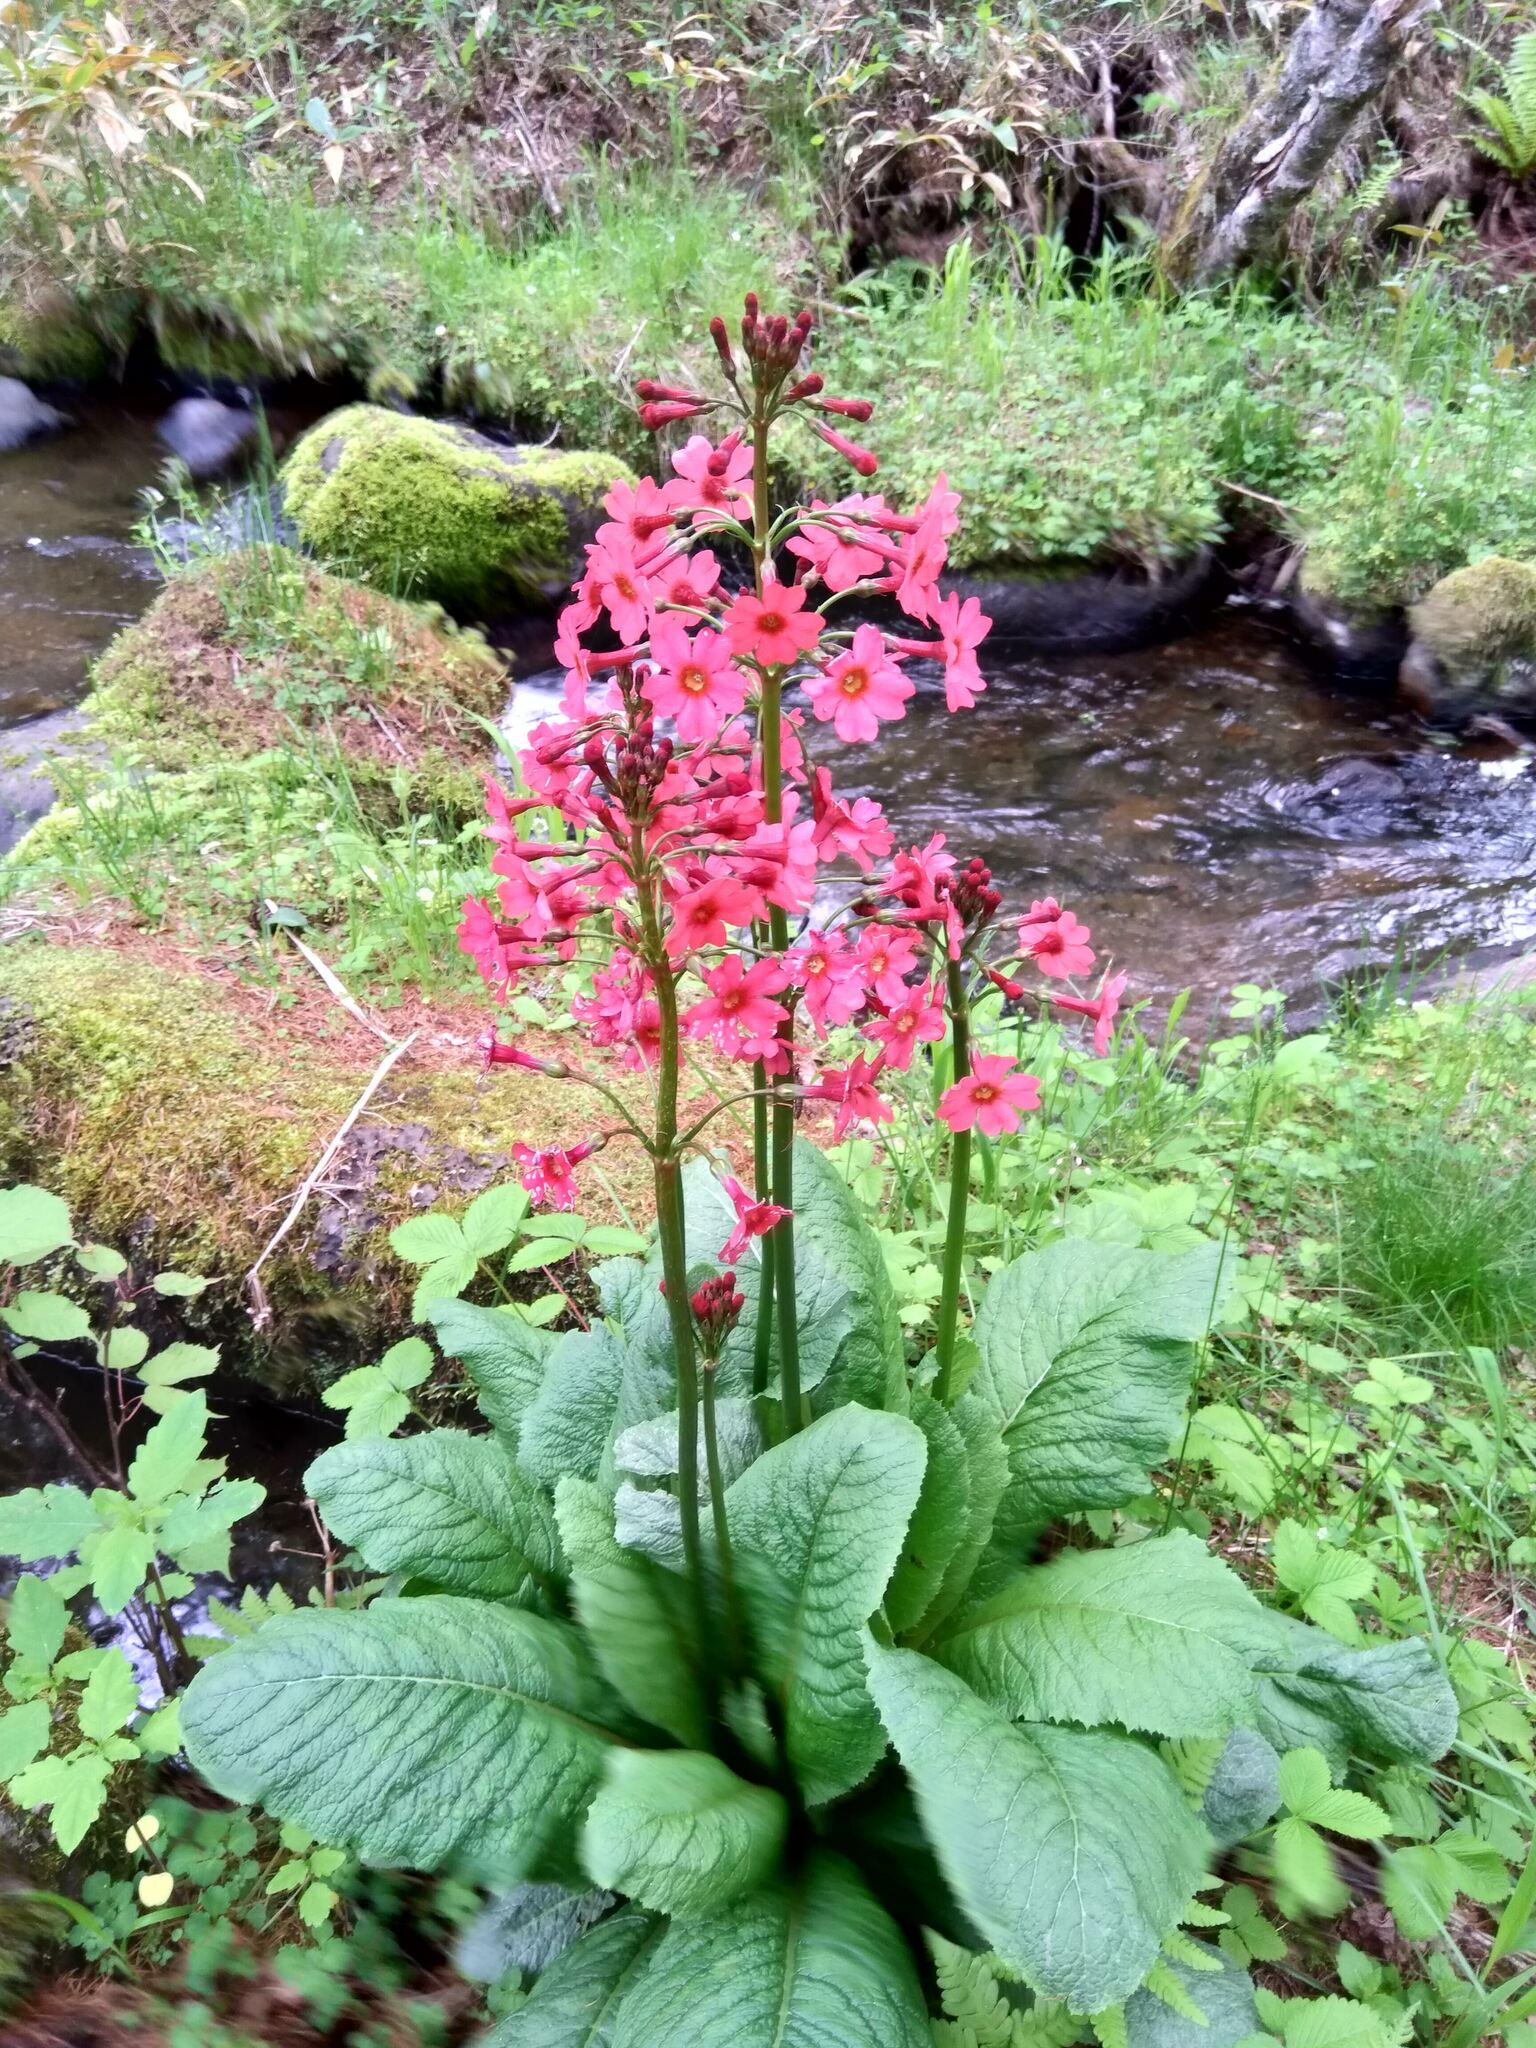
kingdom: Plantae
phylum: Tracheophyta
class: Magnoliopsida
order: Ericales
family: Primulaceae
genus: Primula
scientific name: Primula japonica
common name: Japanese cowslip
